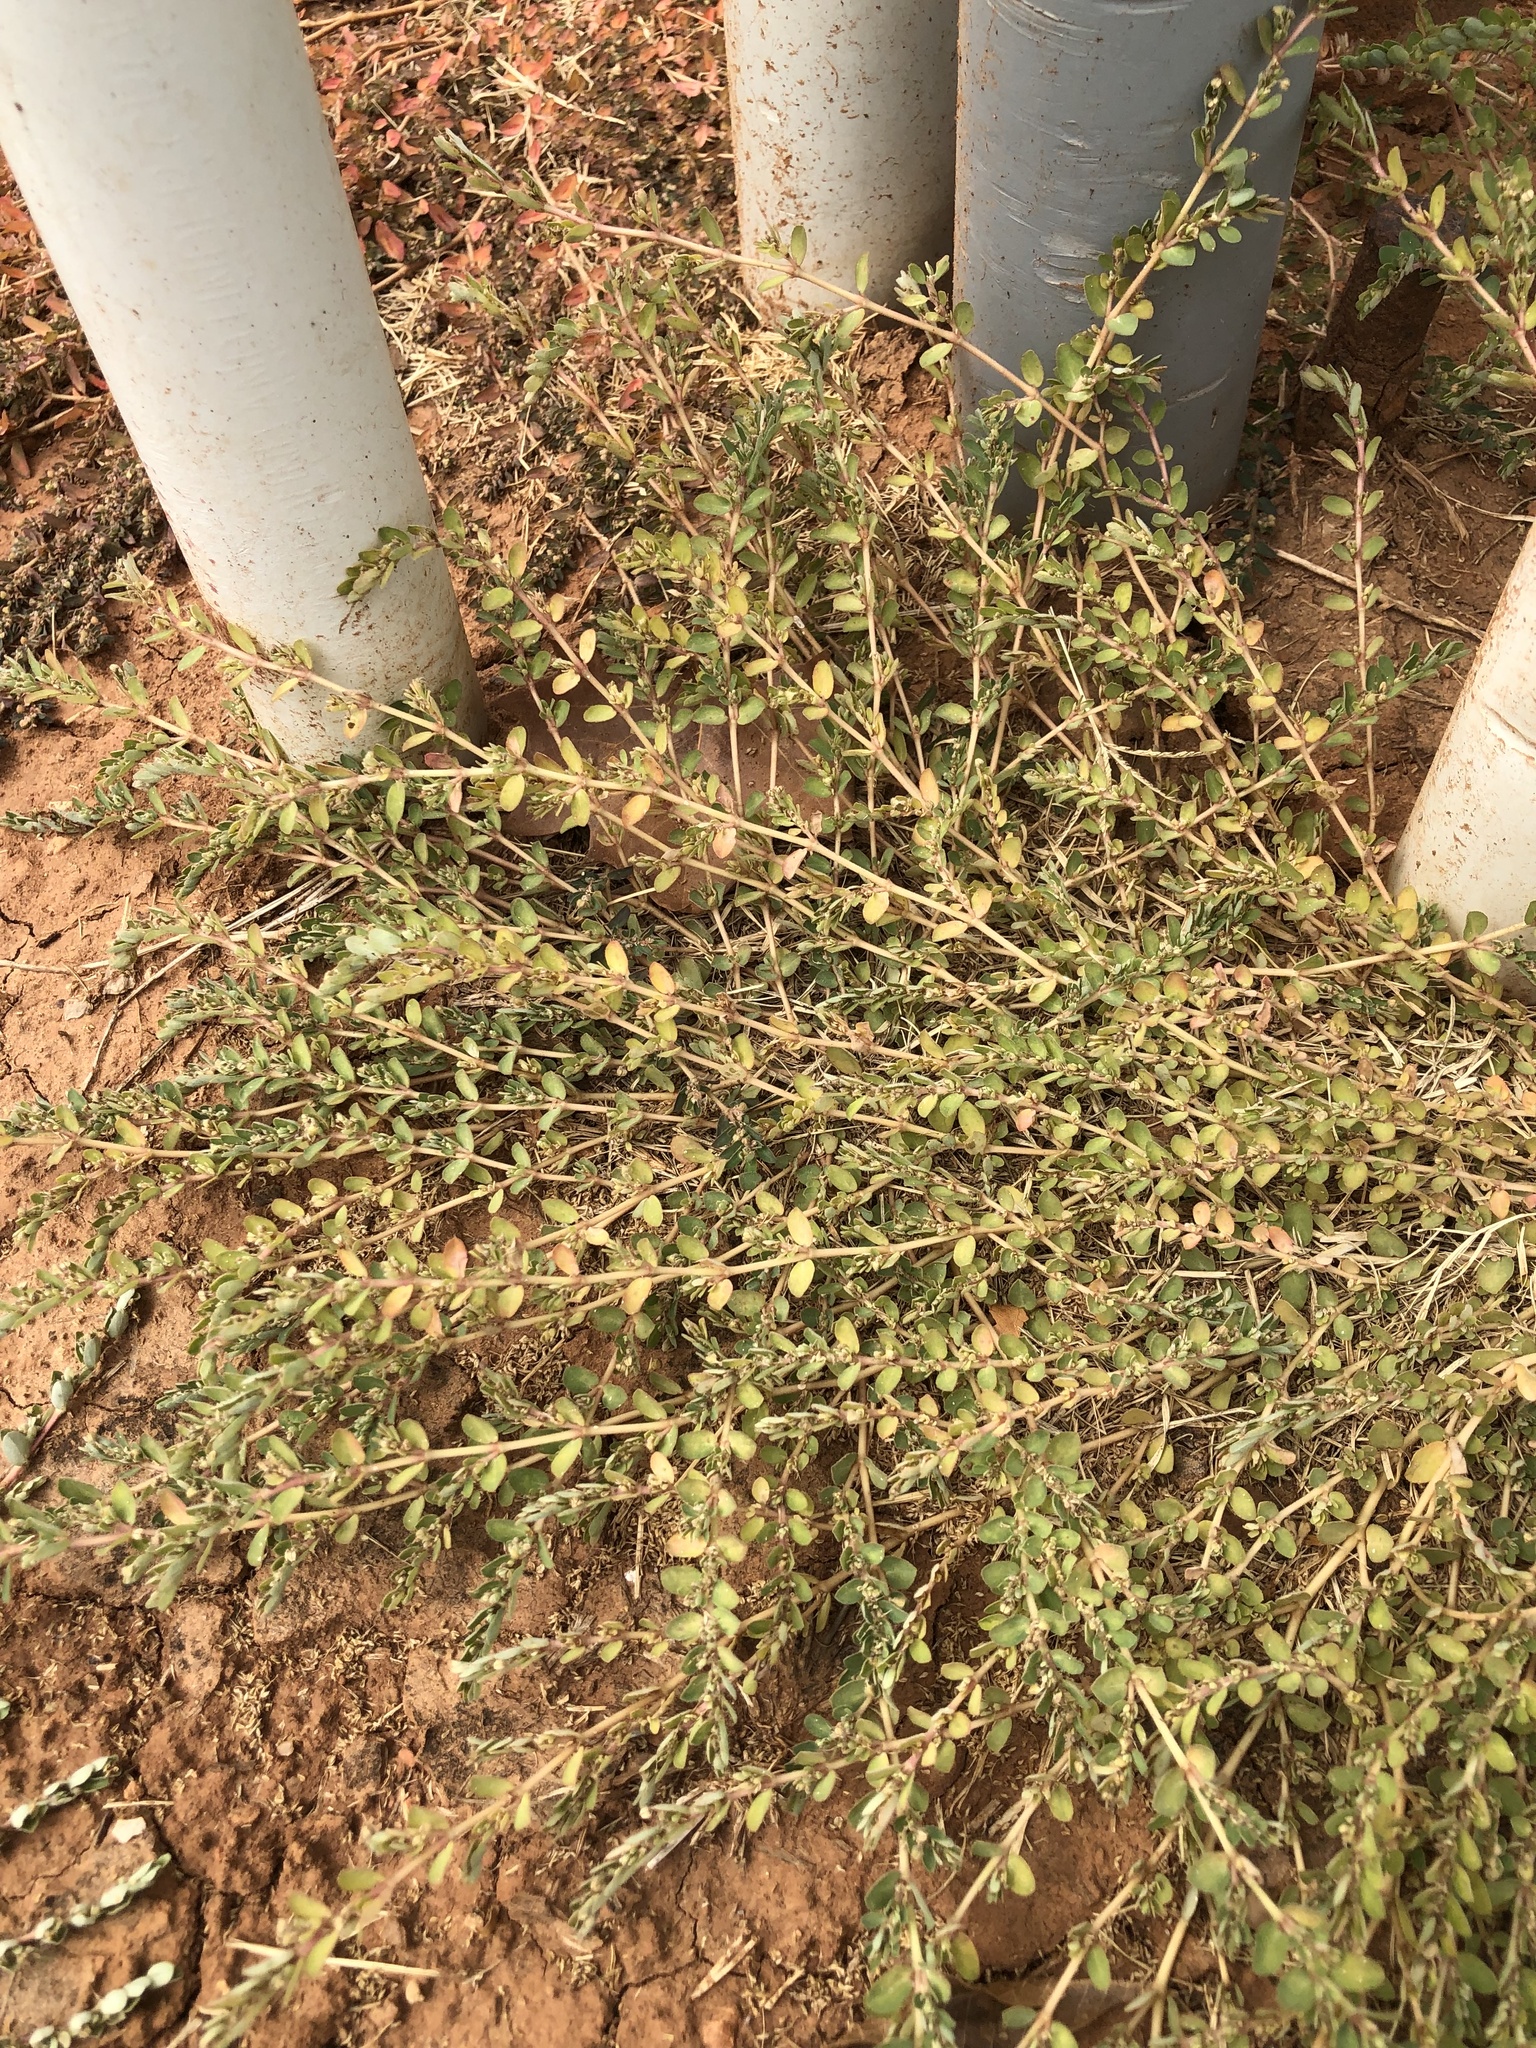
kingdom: Plantae
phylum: Tracheophyta
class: Magnoliopsida
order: Malpighiales
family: Euphorbiaceae
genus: Euphorbia
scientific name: Euphorbia prostrata
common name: Prostrate sandmat
